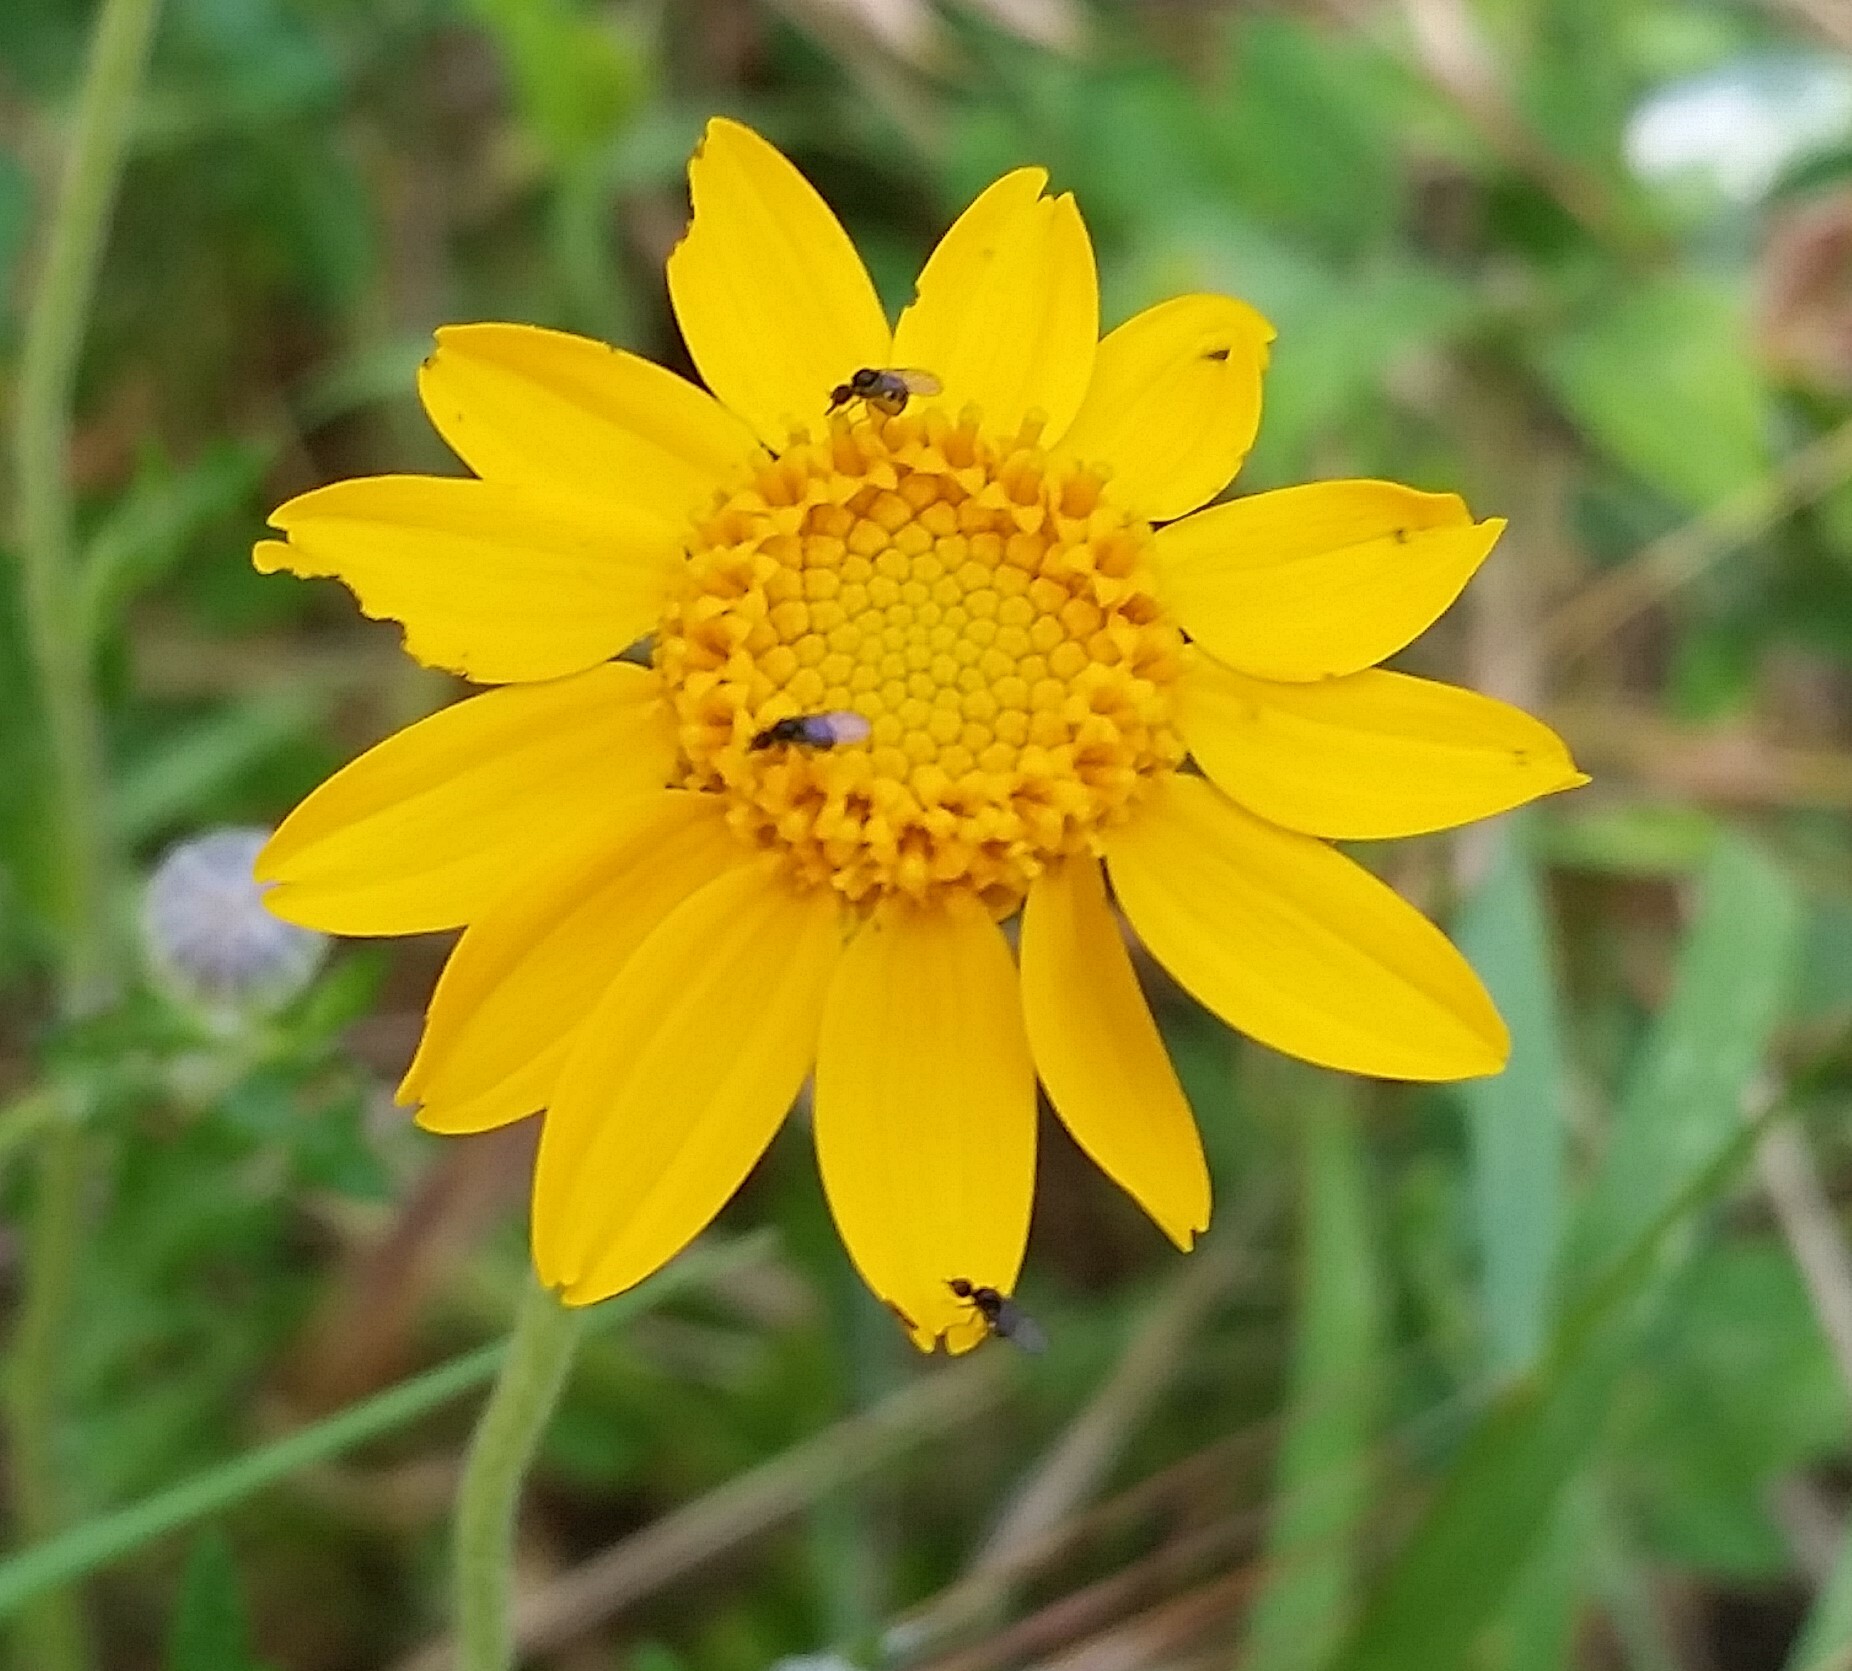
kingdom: Plantae
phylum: Tracheophyta
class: Magnoliopsida
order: Asterales
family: Asteraceae
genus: Eriophyllum
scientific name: Eriophyllum lanatum
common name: Common woolly-sunflower
